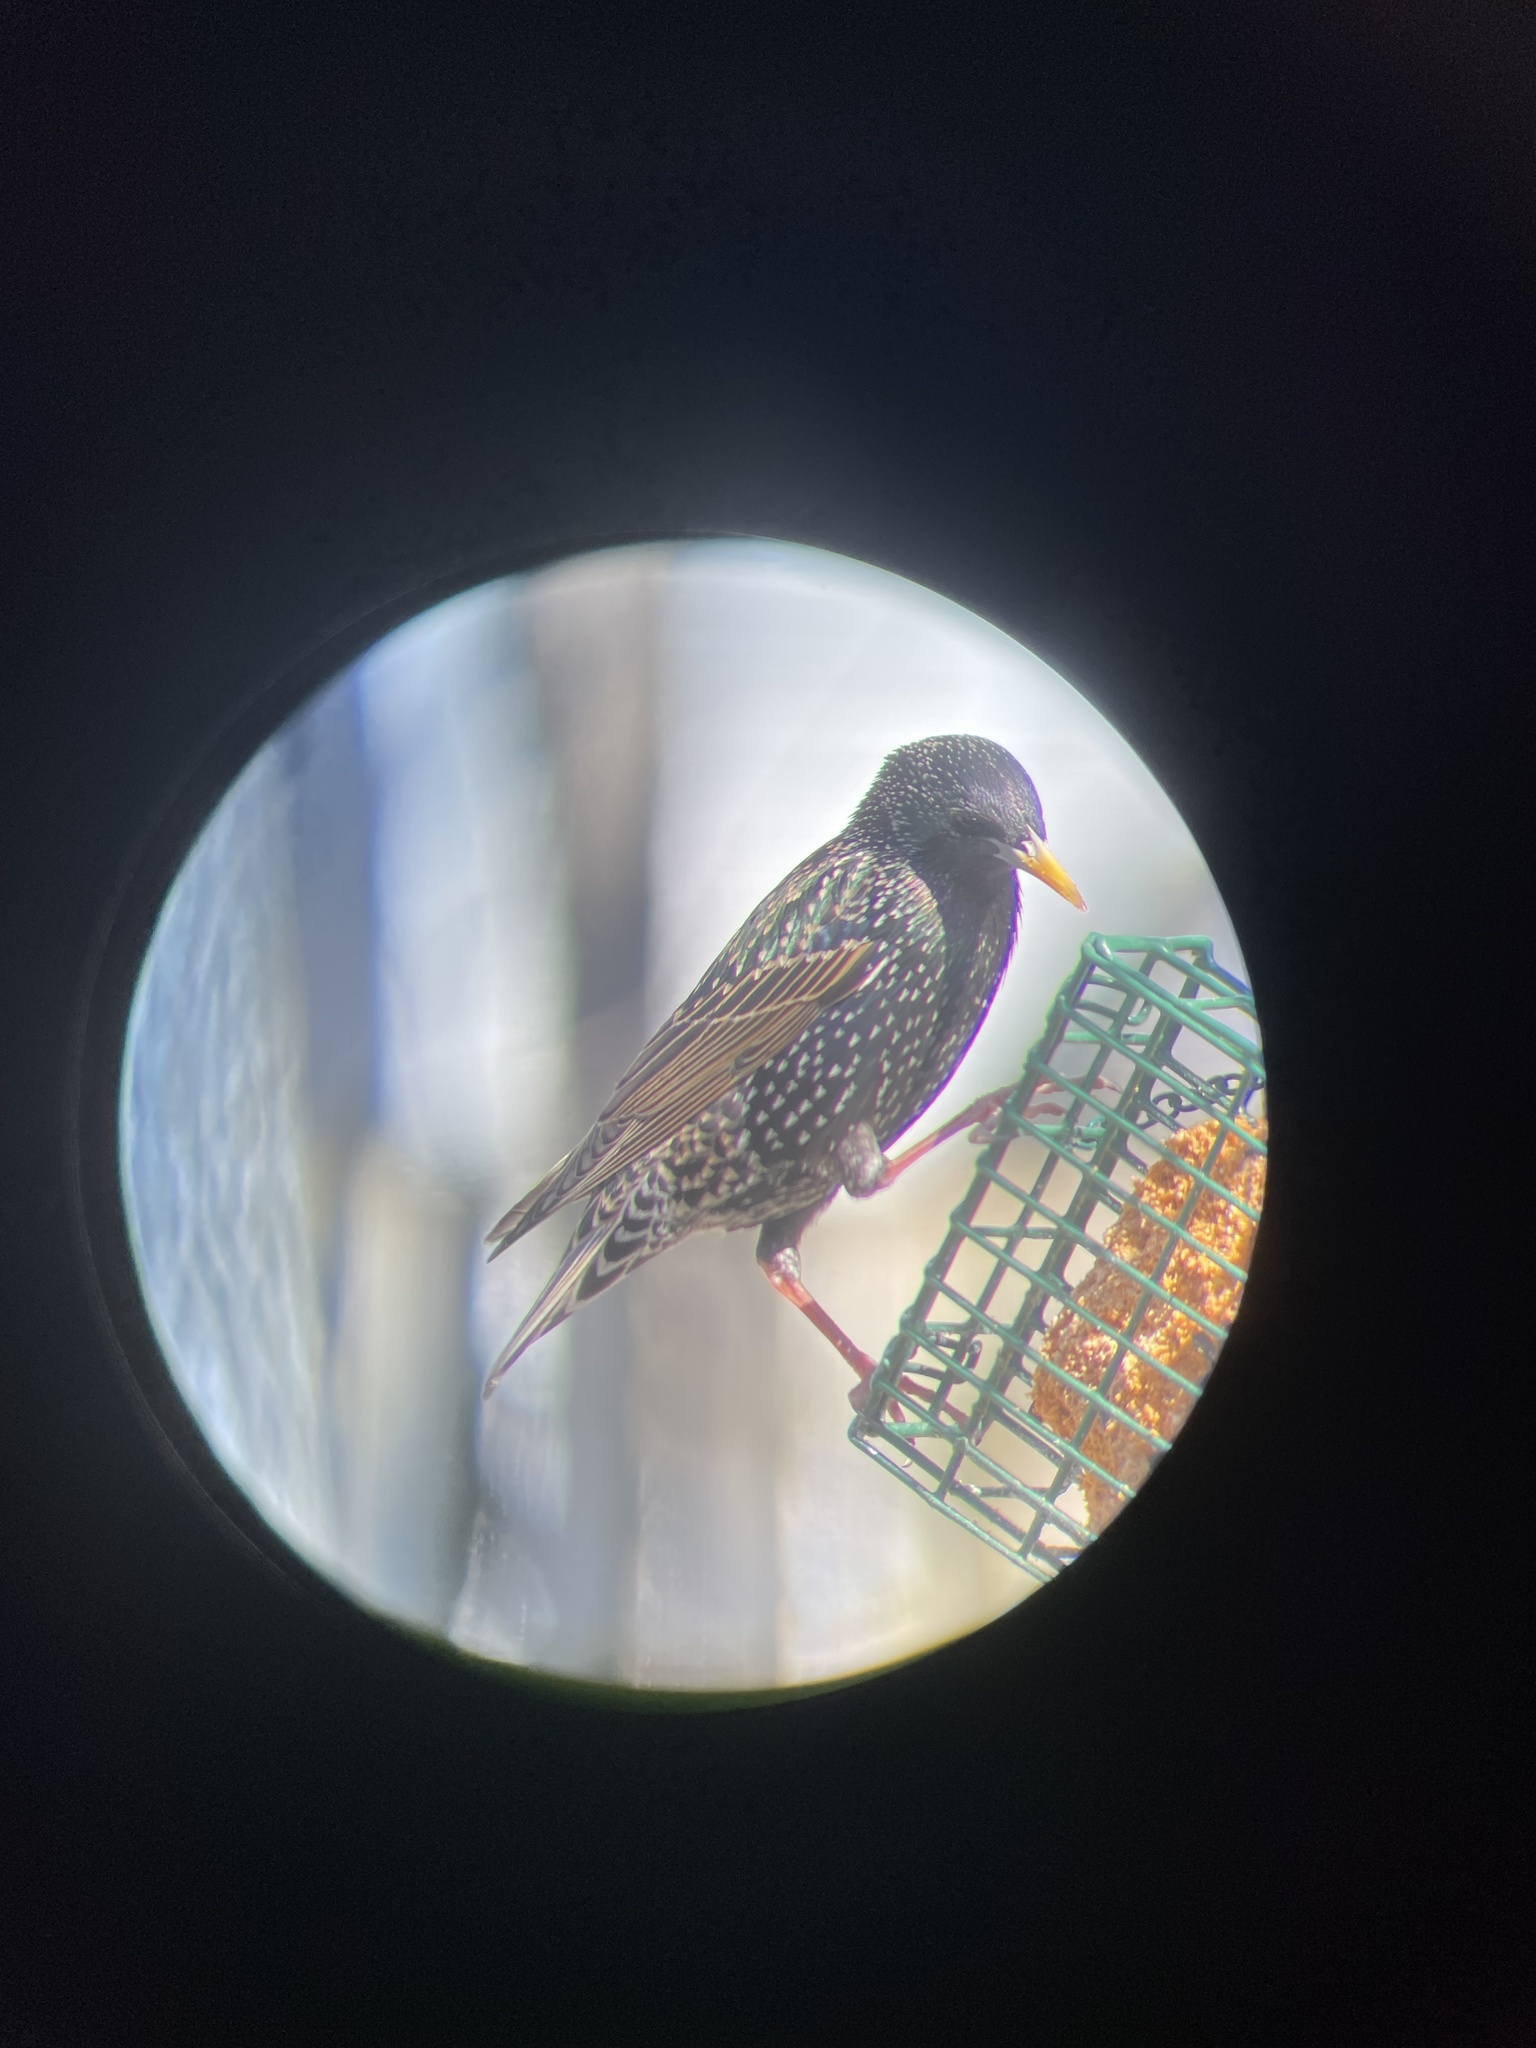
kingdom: Animalia
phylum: Chordata
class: Aves
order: Passeriformes
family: Sturnidae
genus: Sturnus
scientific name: Sturnus vulgaris
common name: Common starling
